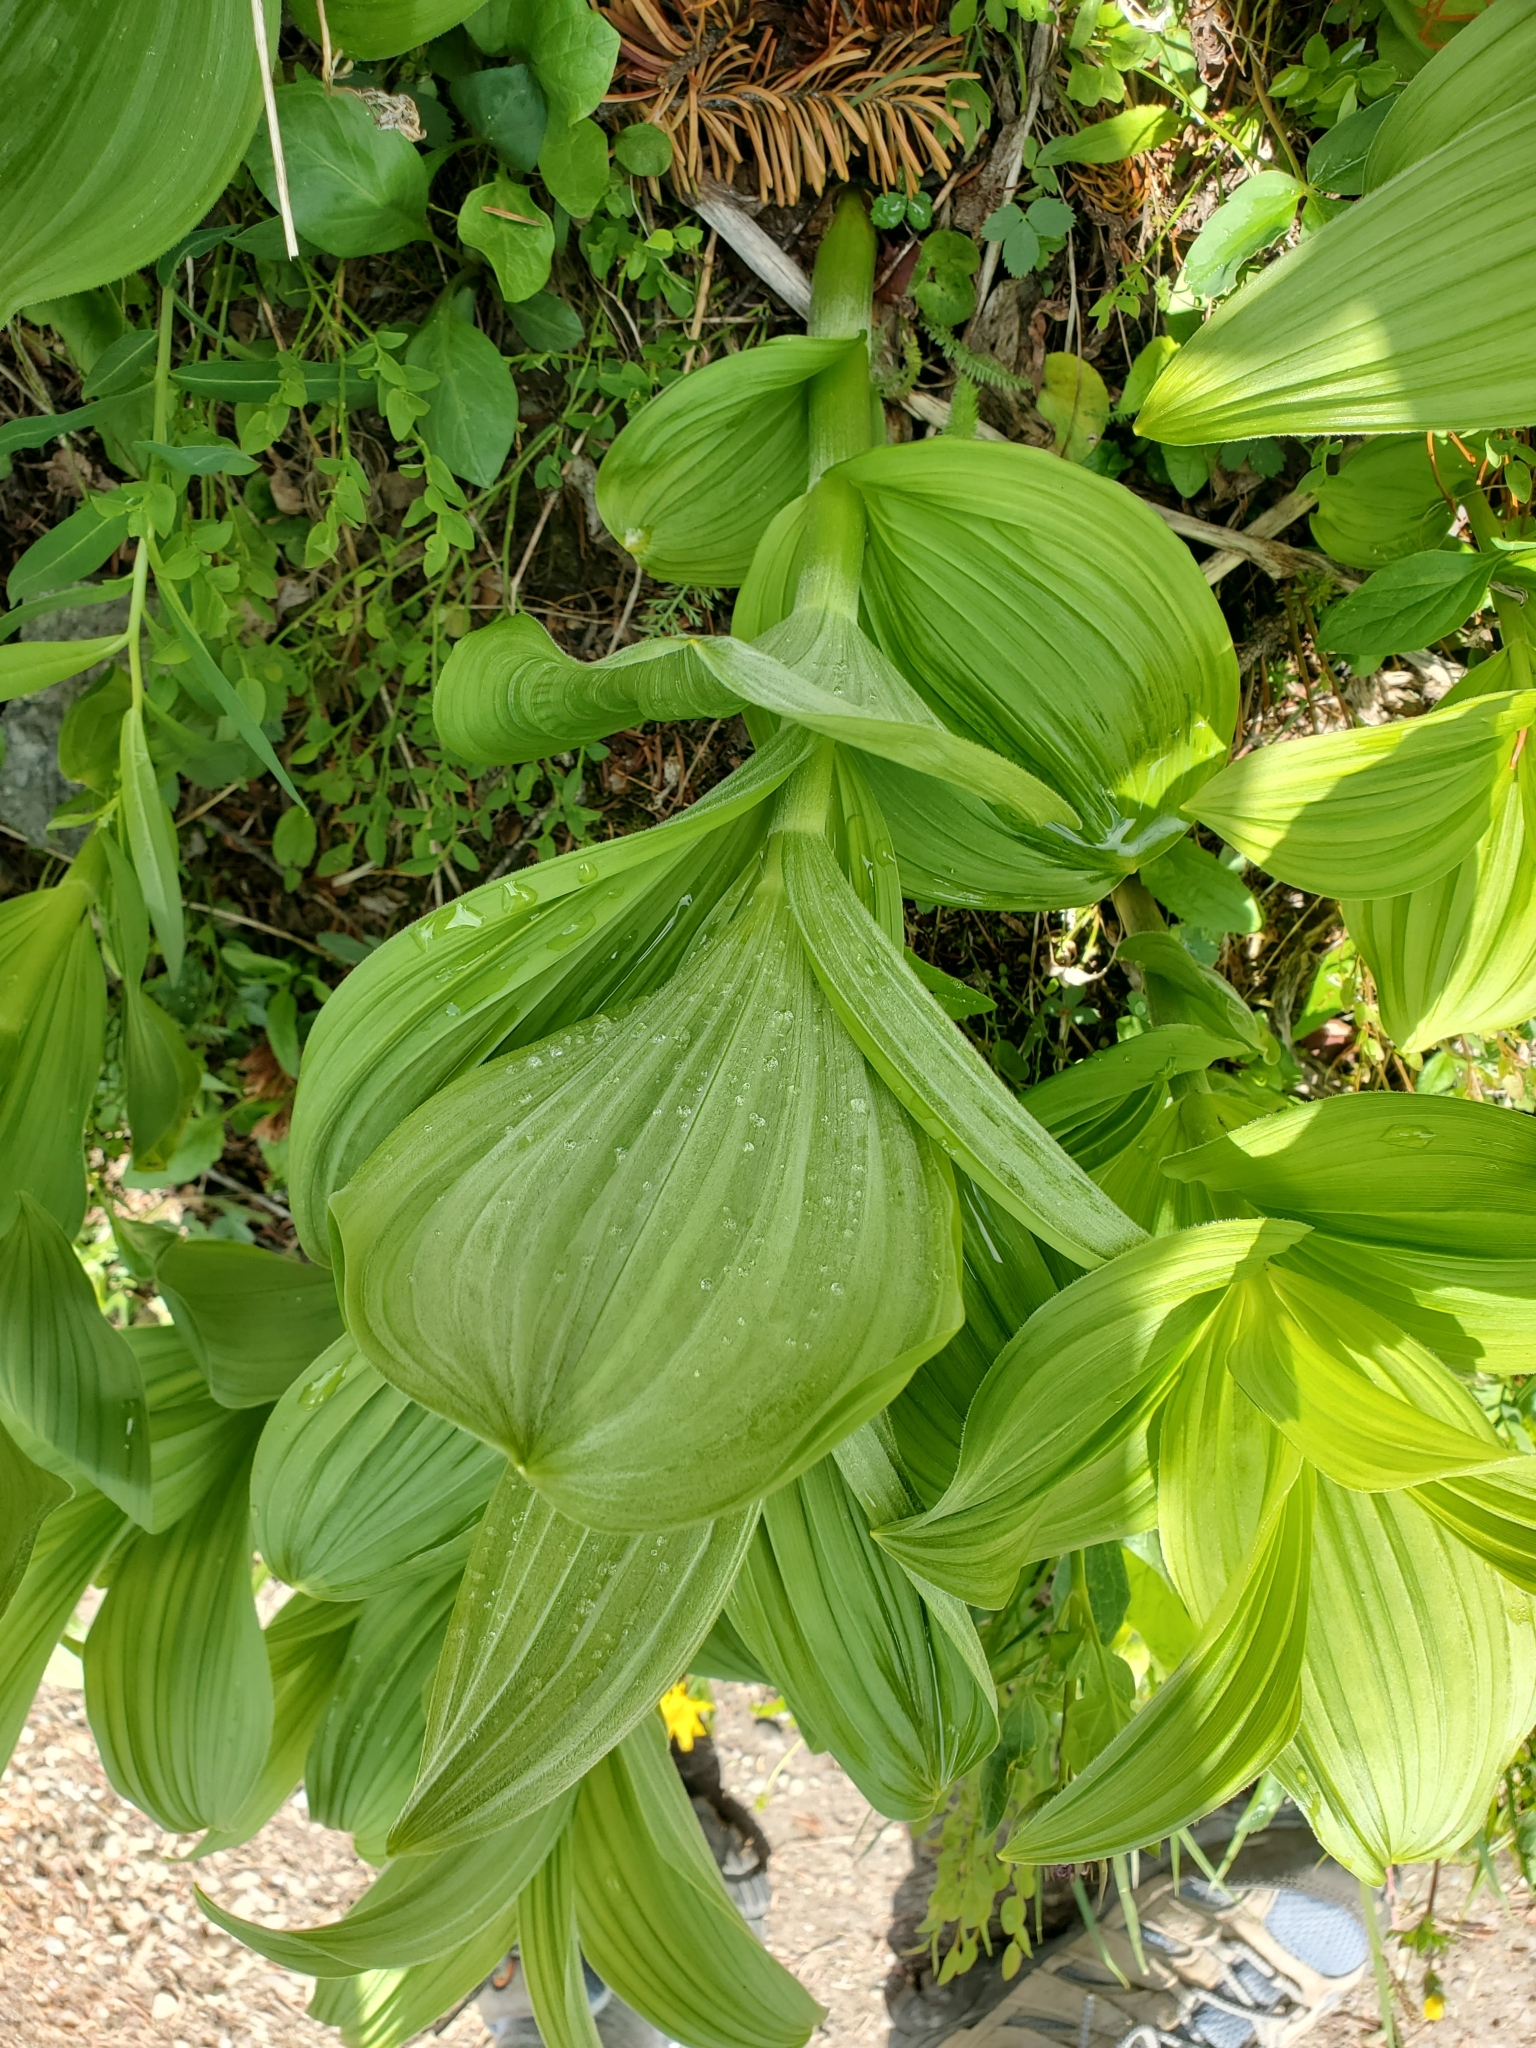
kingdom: Plantae
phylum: Tracheophyta
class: Liliopsida
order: Liliales
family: Melanthiaceae
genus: Veratrum
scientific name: Veratrum viride
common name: American false hellebore
